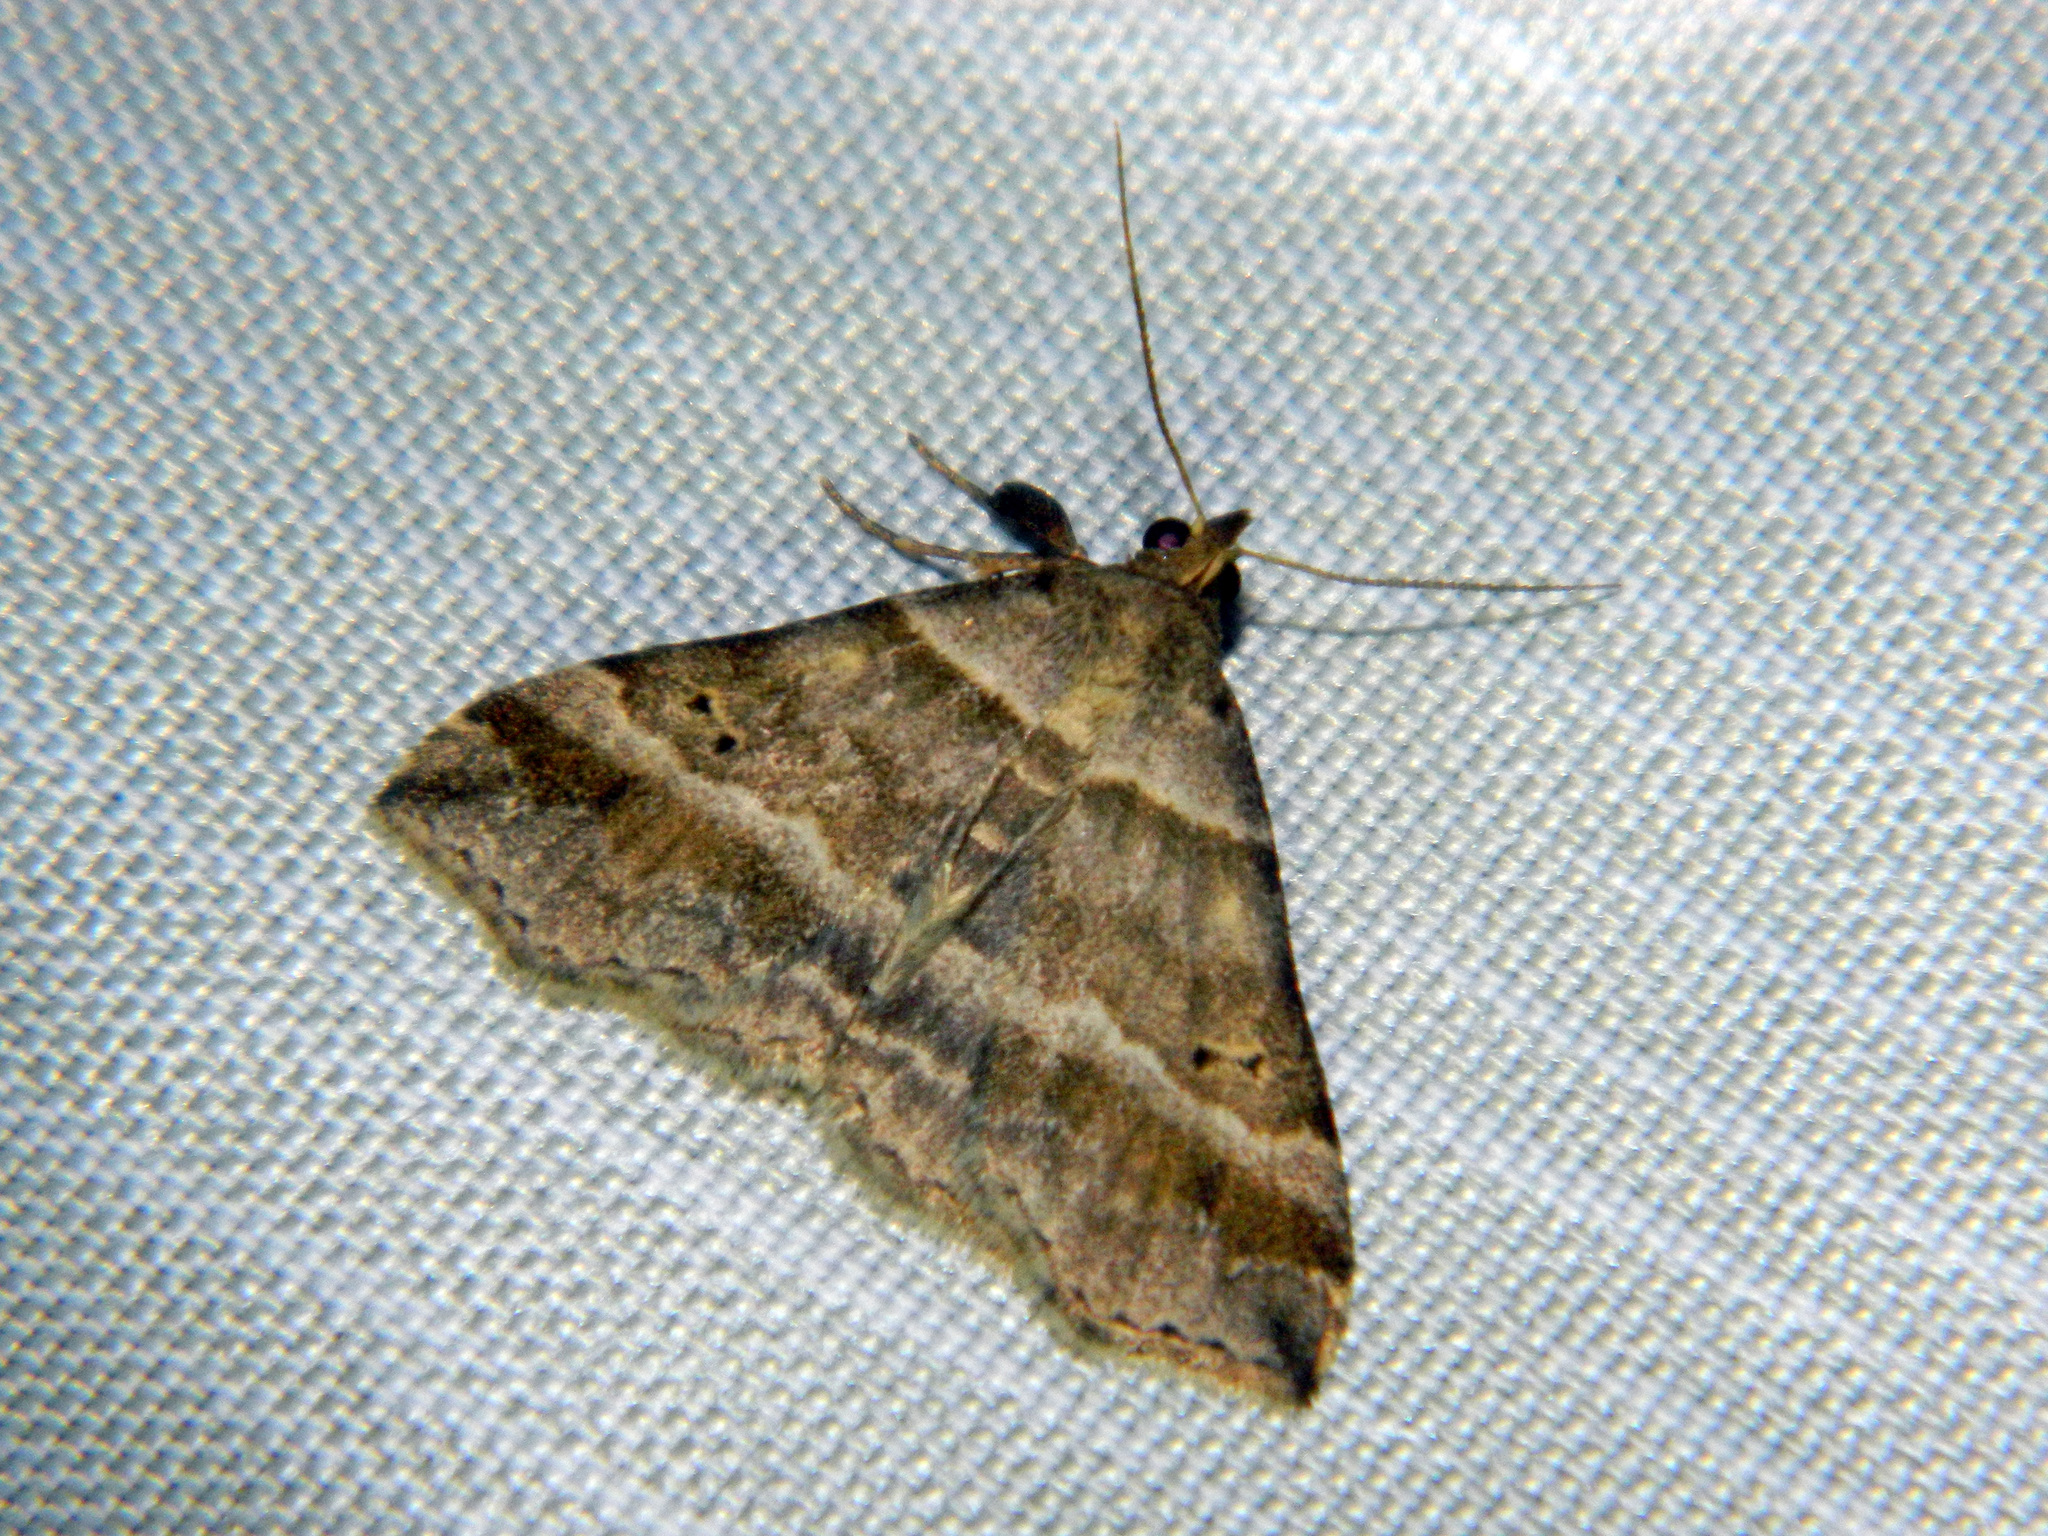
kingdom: Animalia
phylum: Arthropoda
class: Insecta
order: Lepidoptera
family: Erebidae
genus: Phaeolita
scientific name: Phaeolita pyramusalis
